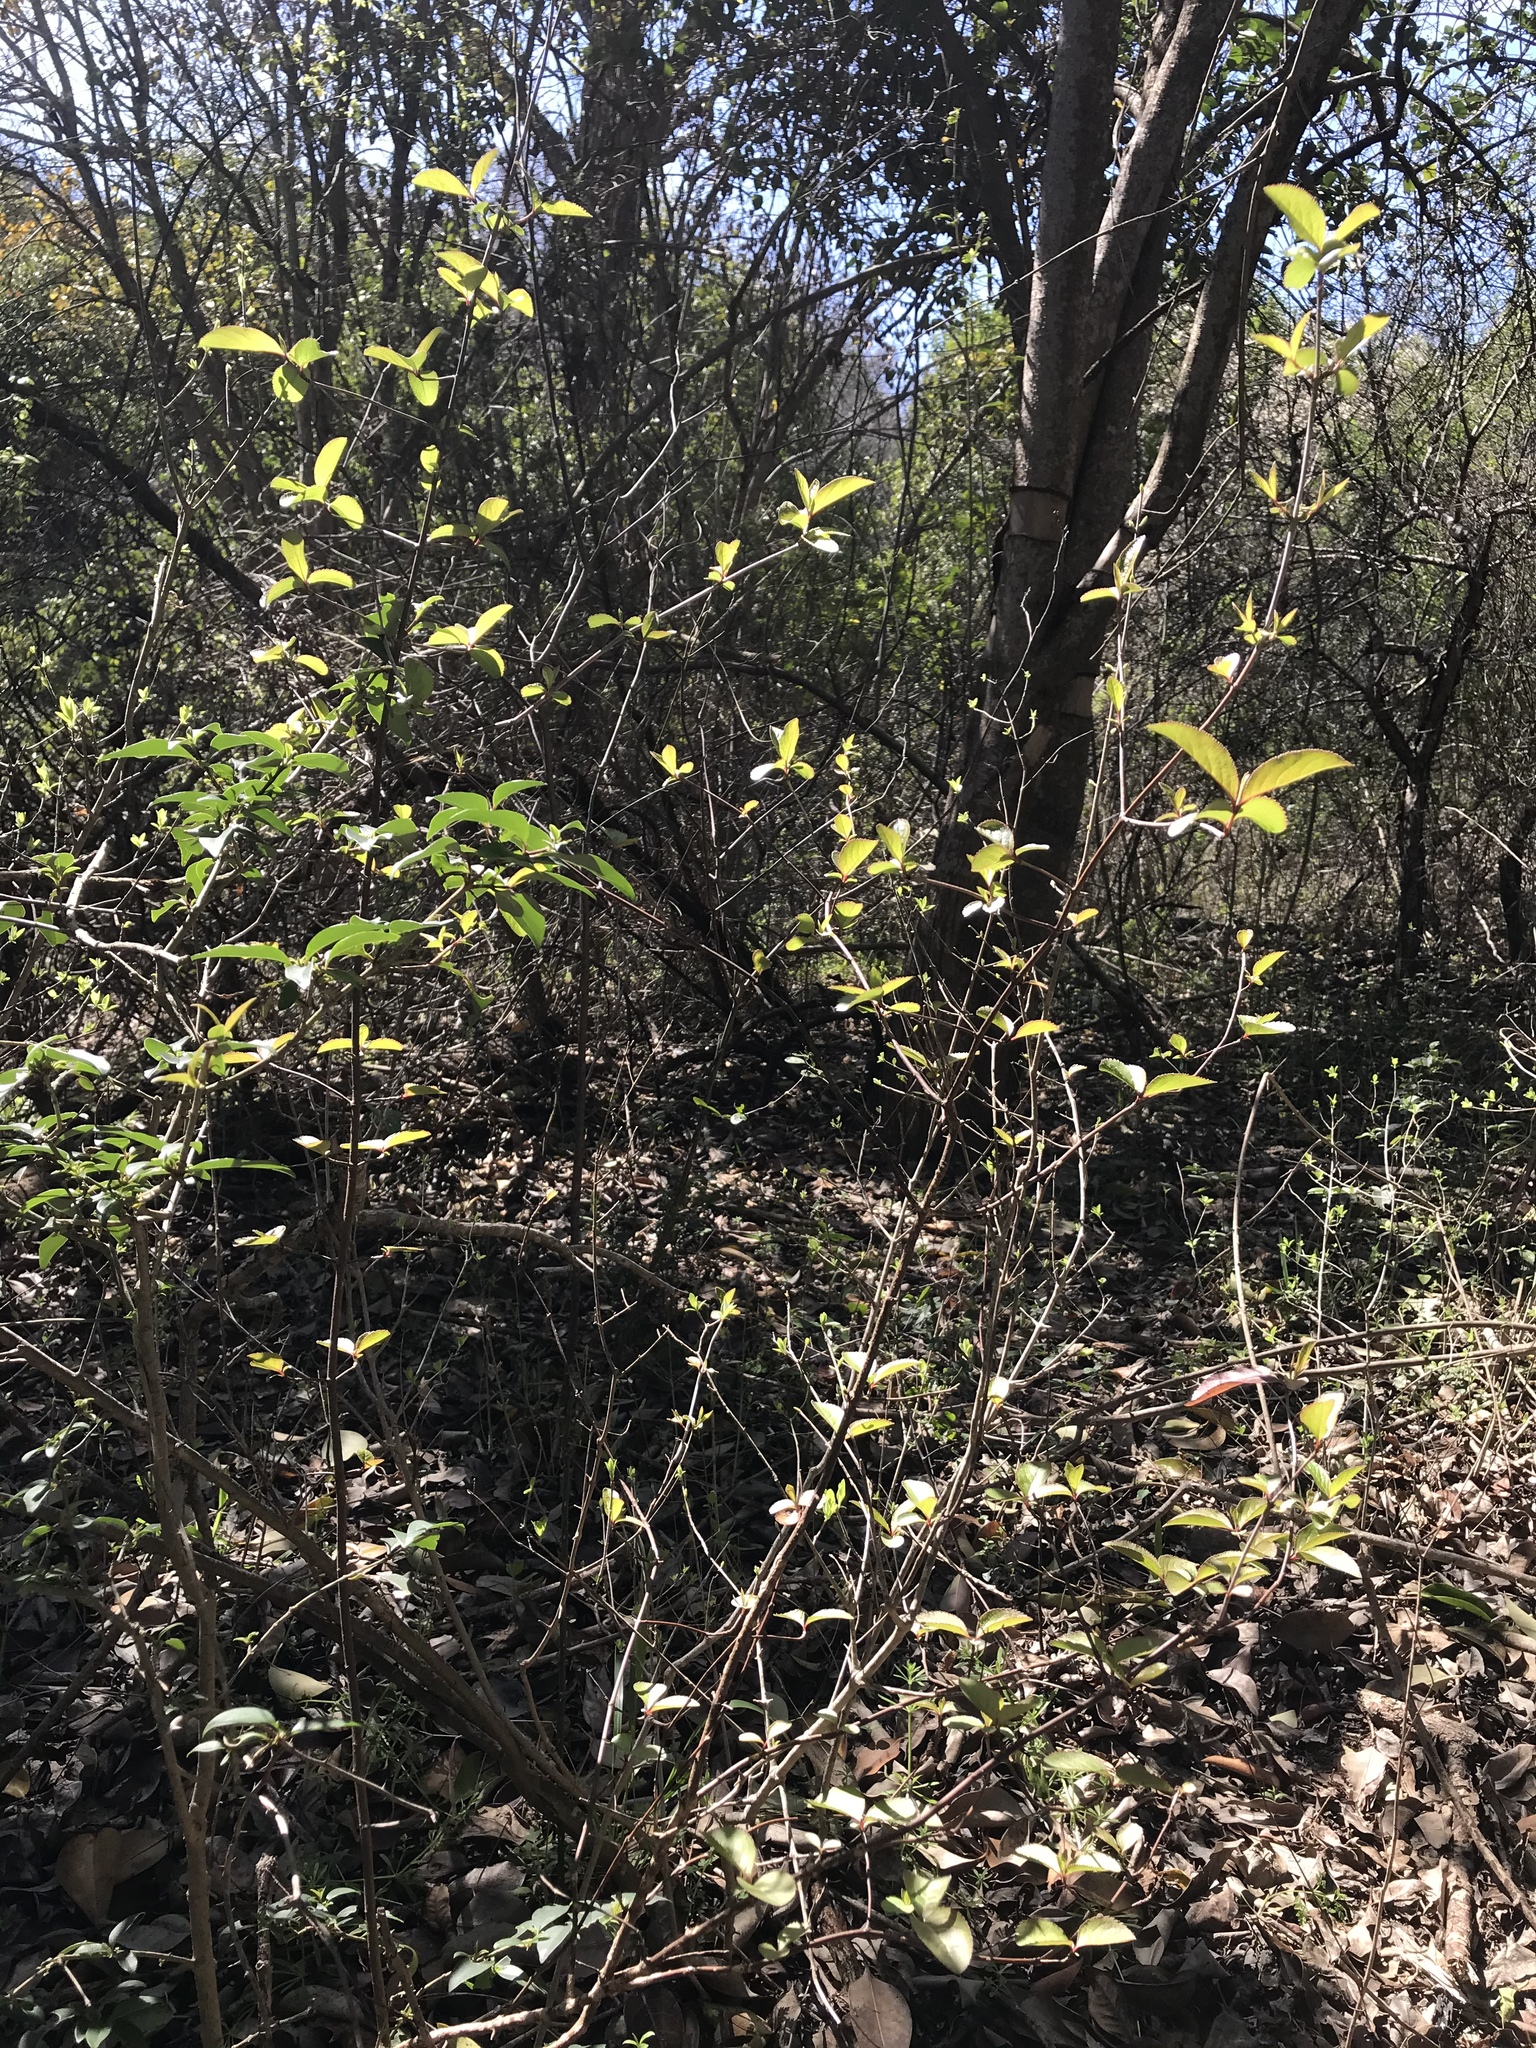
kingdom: Plantae
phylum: Tracheophyta
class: Magnoliopsida
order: Dipsacales
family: Viburnaceae
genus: Viburnum
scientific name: Viburnum rufidulum
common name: Blue haw
